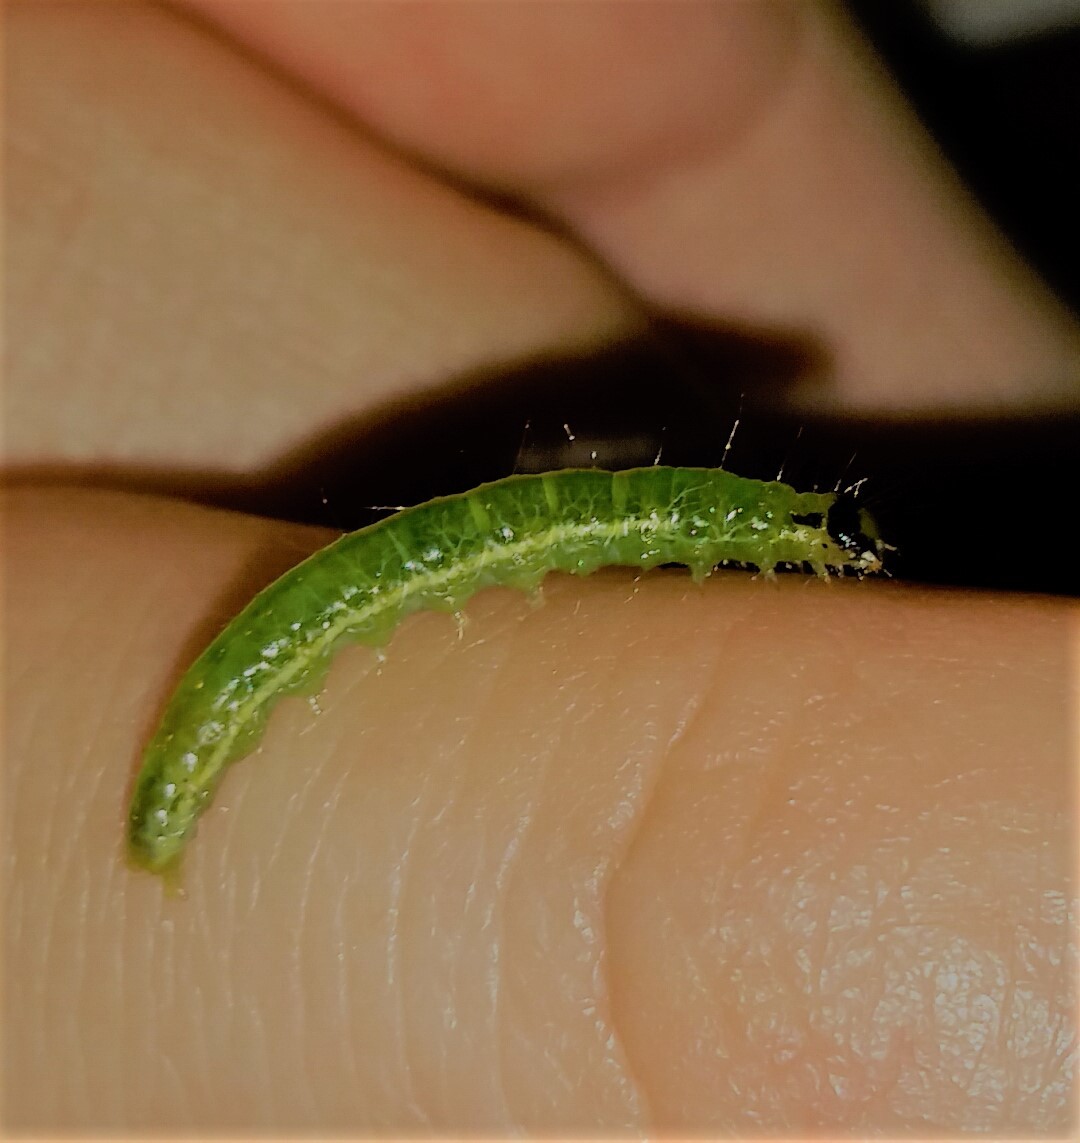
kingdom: Animalia
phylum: Arthropoda
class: Insecta
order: Lepidoptera
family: Crambidae
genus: Condylorrhiza
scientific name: Condylorrhiza vestigialis
